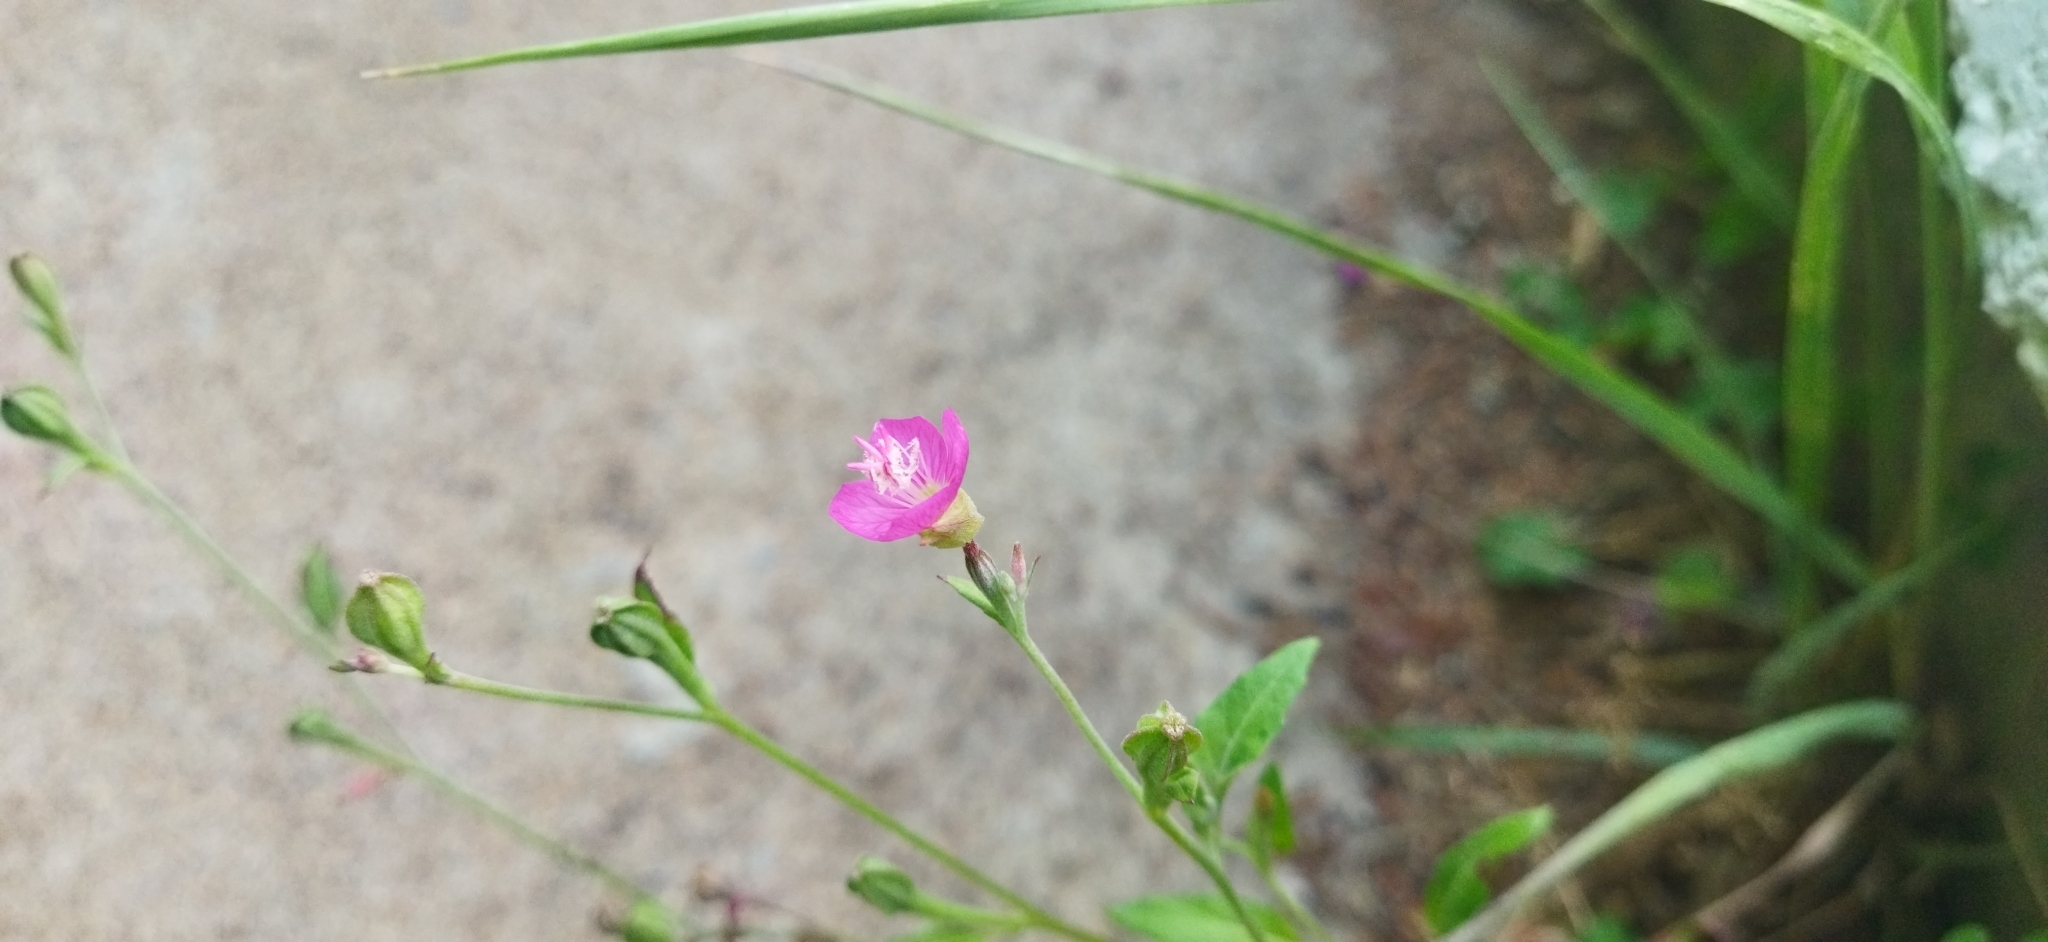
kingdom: Plantae
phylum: Tracheophyta
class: Magnoliopsida
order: Myrtales
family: Onagraceae
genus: Oenothera
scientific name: Oenothera rosea
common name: Rosy evening-primrose
